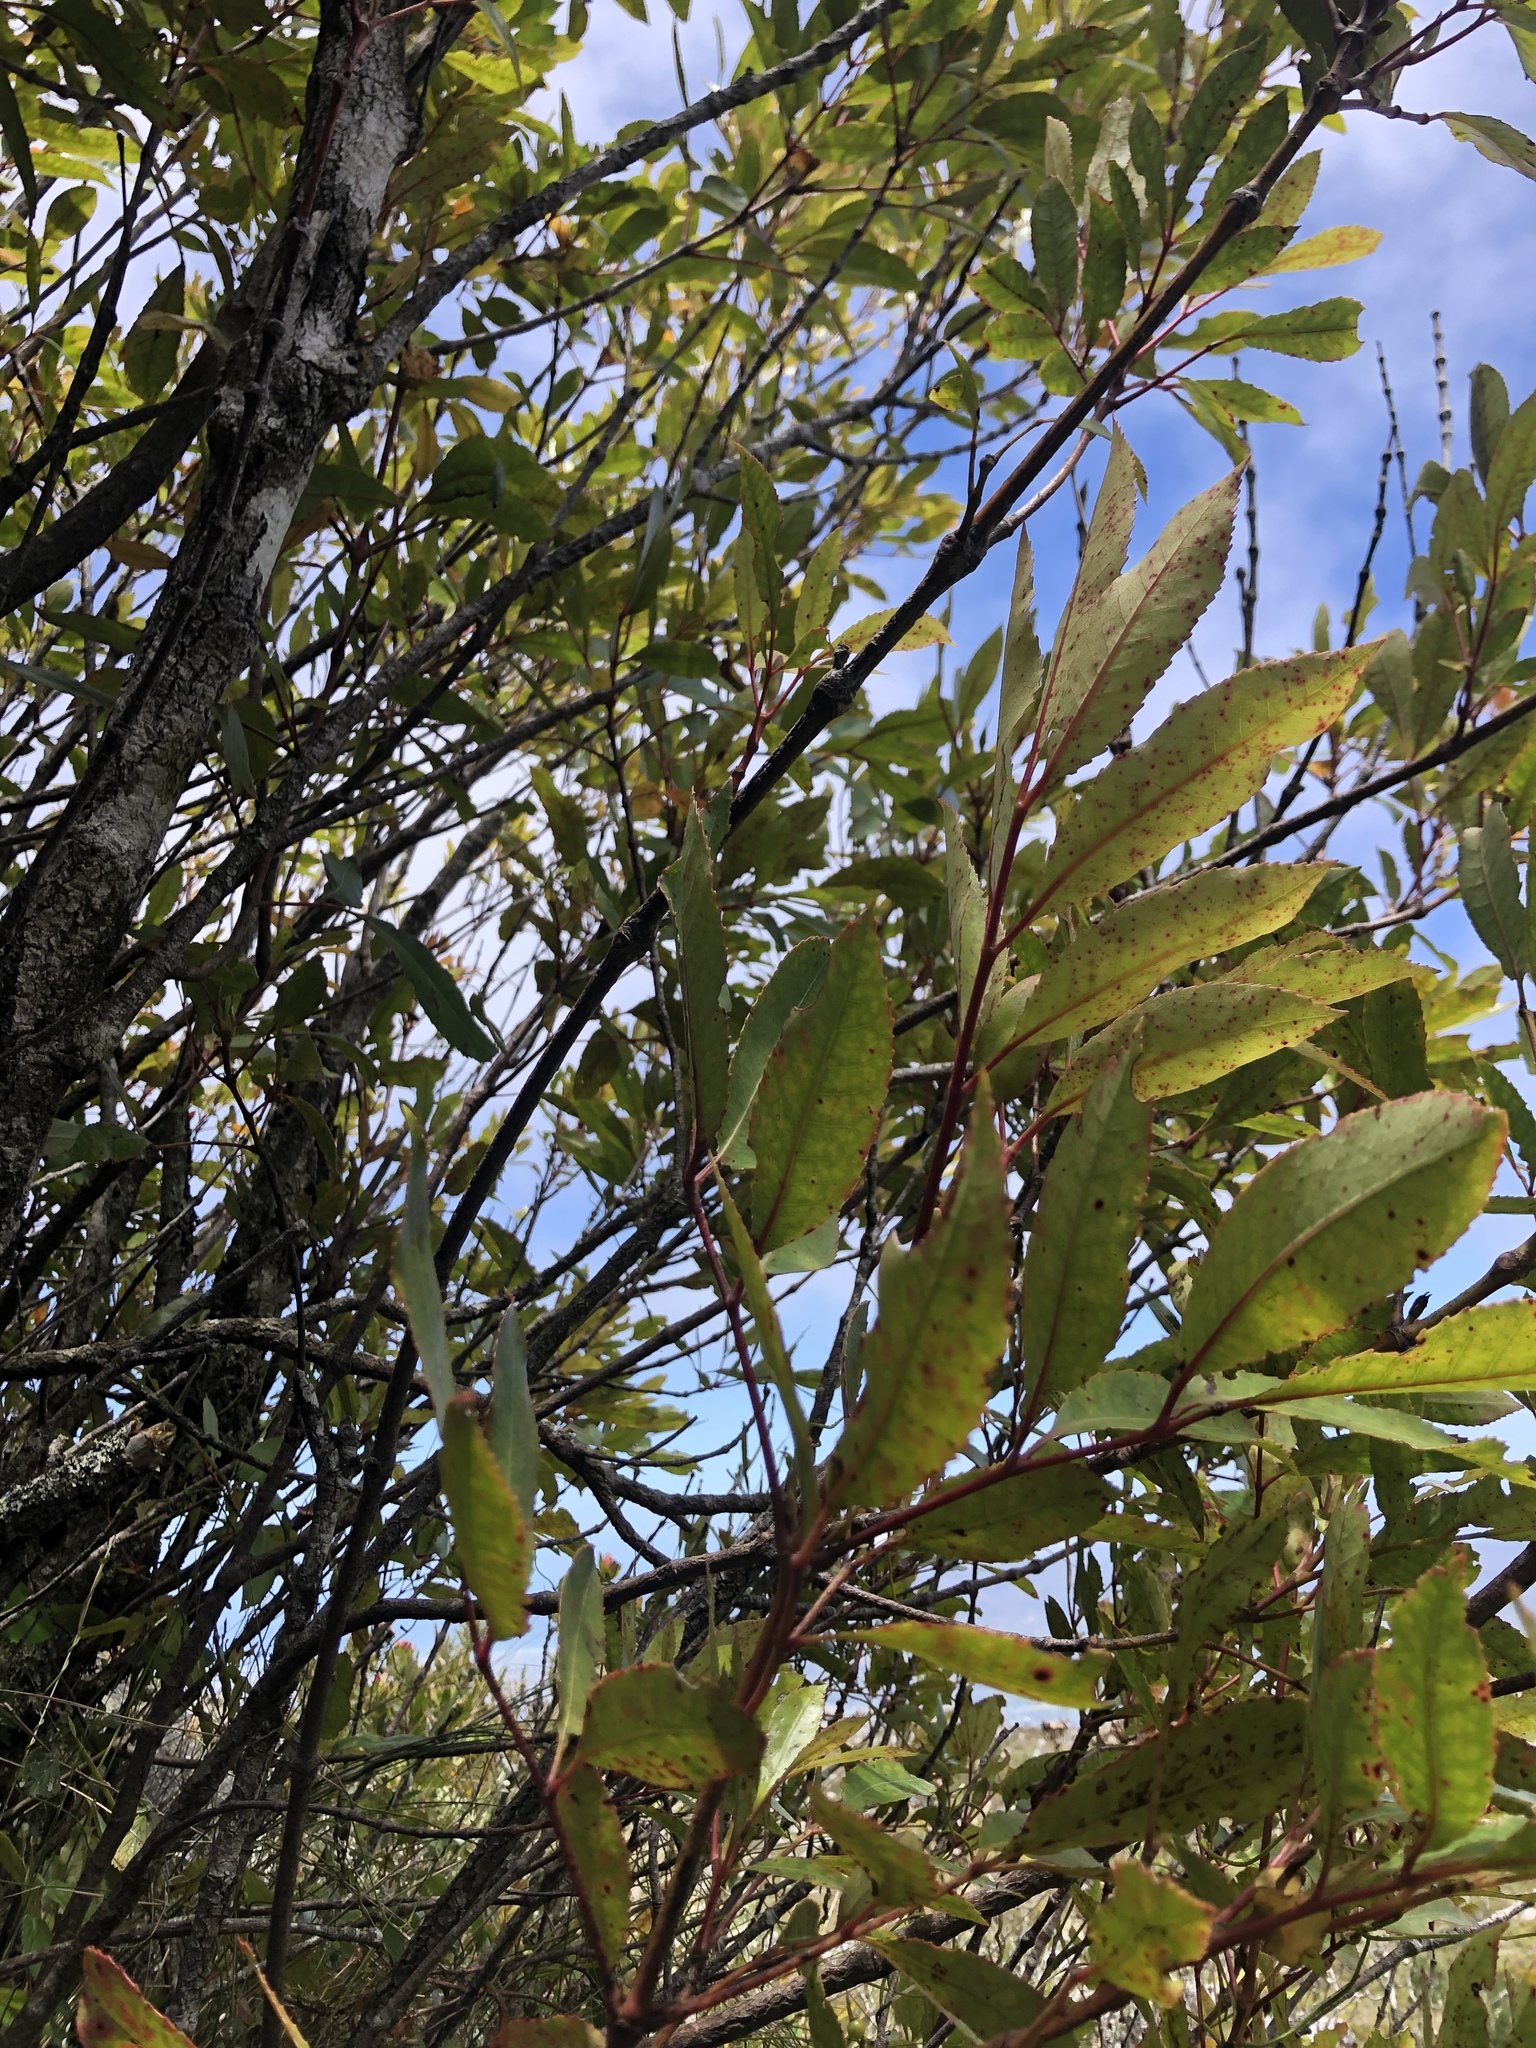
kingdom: Plantae
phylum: Tracheophyta
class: Magnoliopsida
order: Oxalidales
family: Cunoniaceae
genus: Cunonia
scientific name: Cunonia capensis
